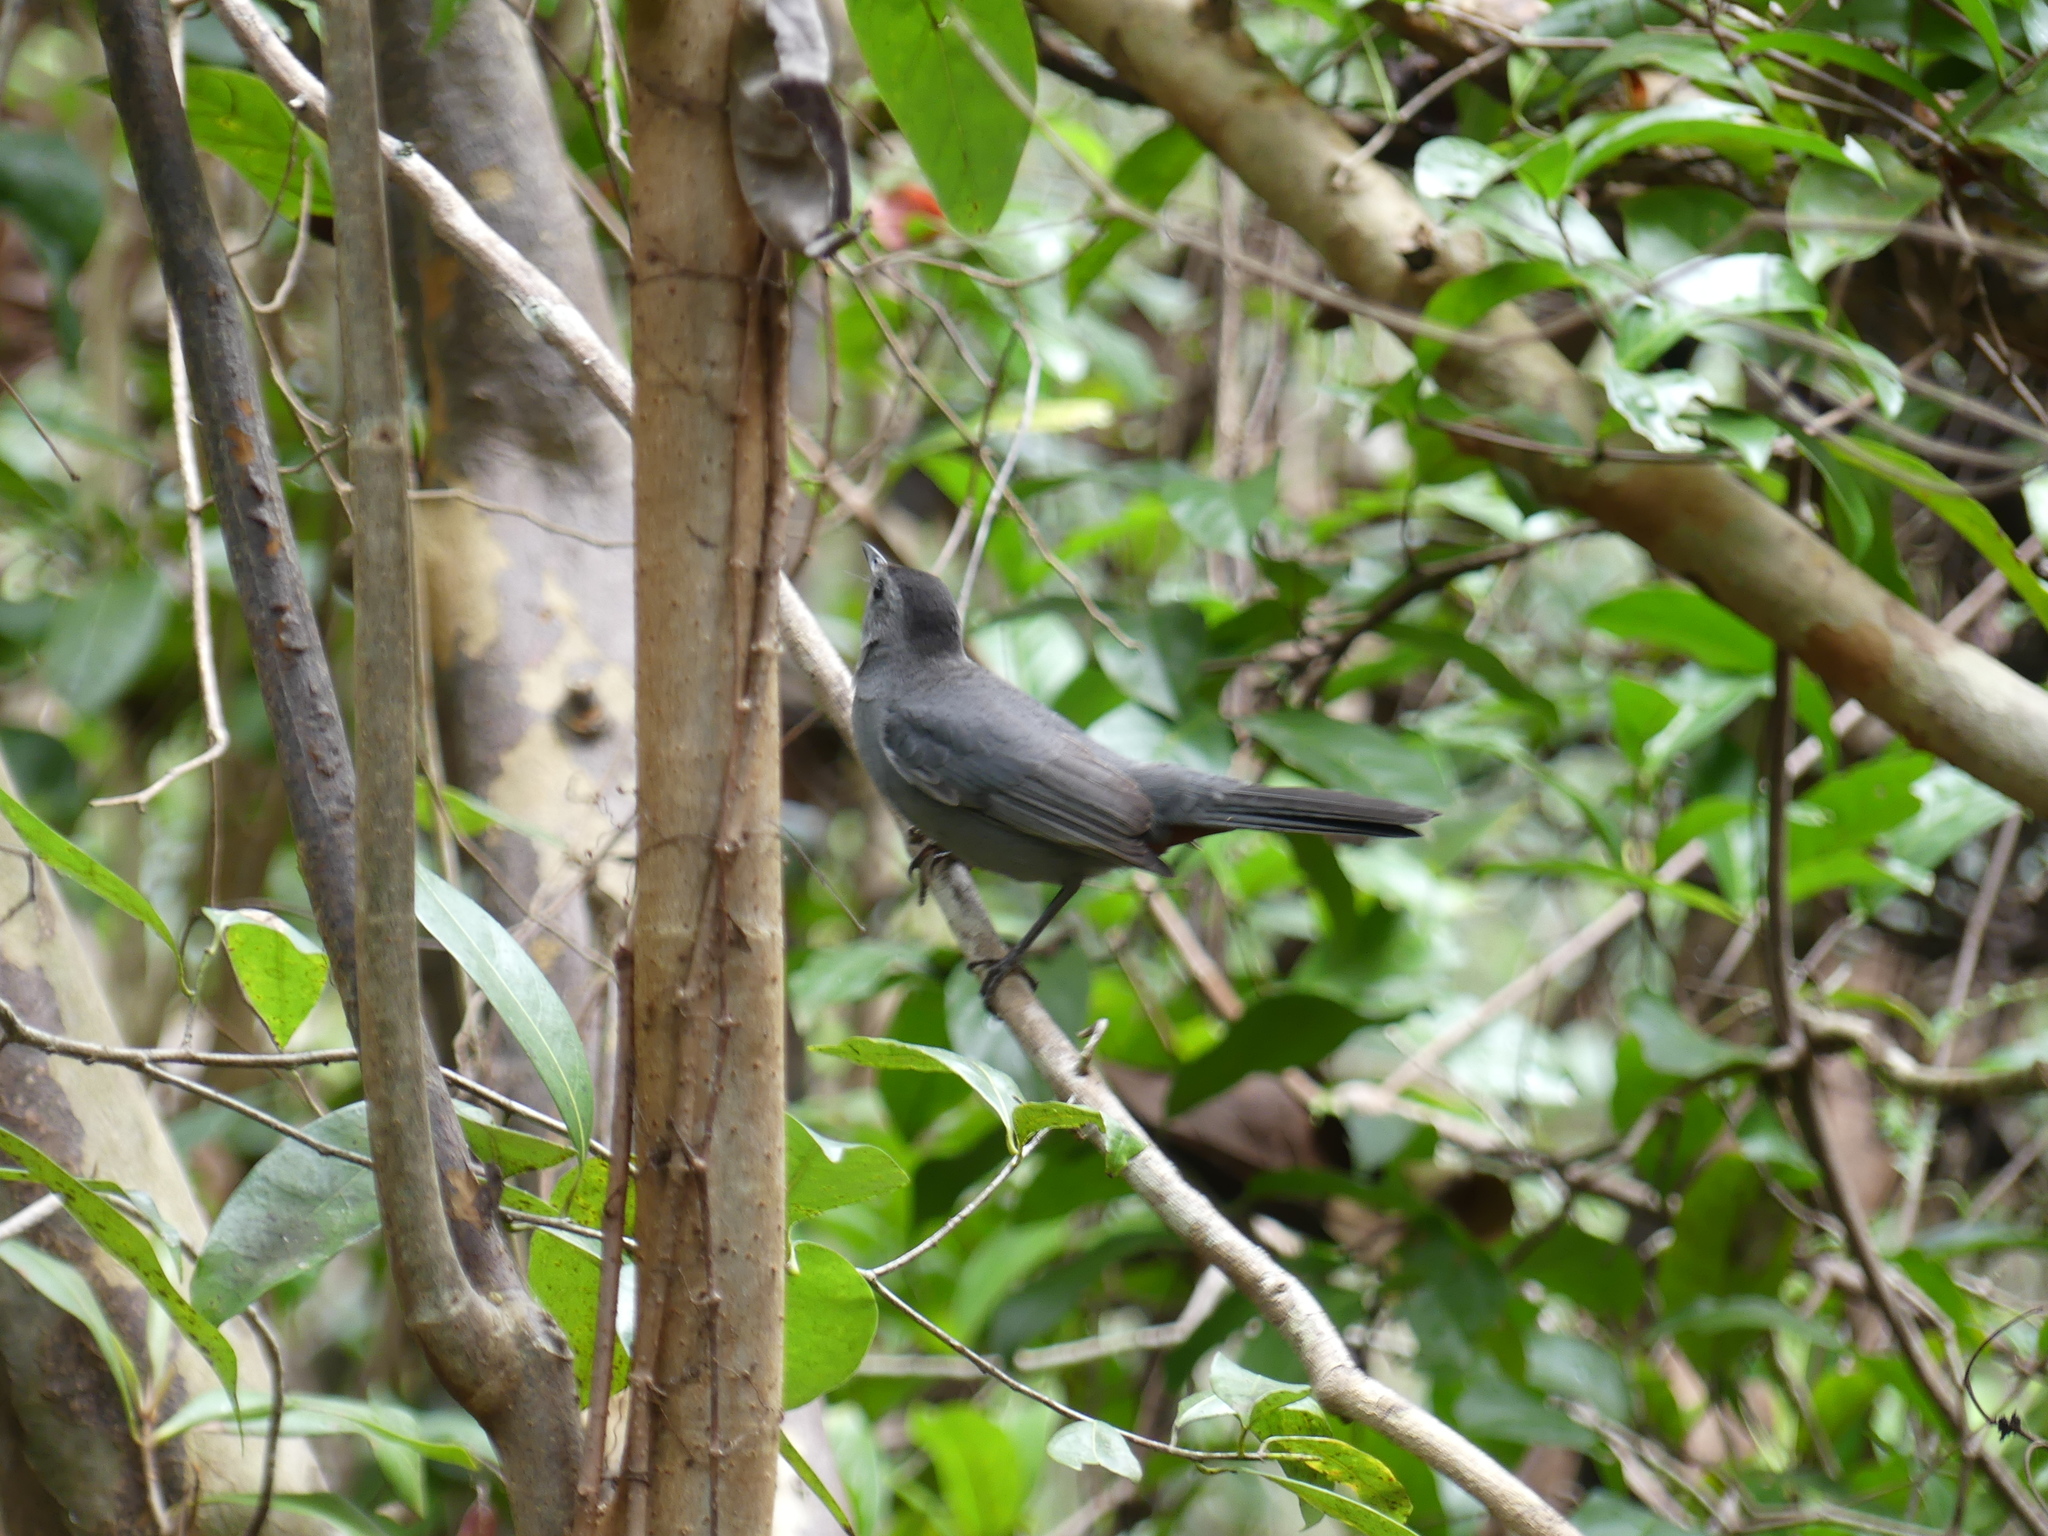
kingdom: Animalia
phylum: Chordata
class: Aves
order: Passeriformes
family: Mimidae
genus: Dumetella
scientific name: Dumetella carolinensis
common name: Gray catbird
